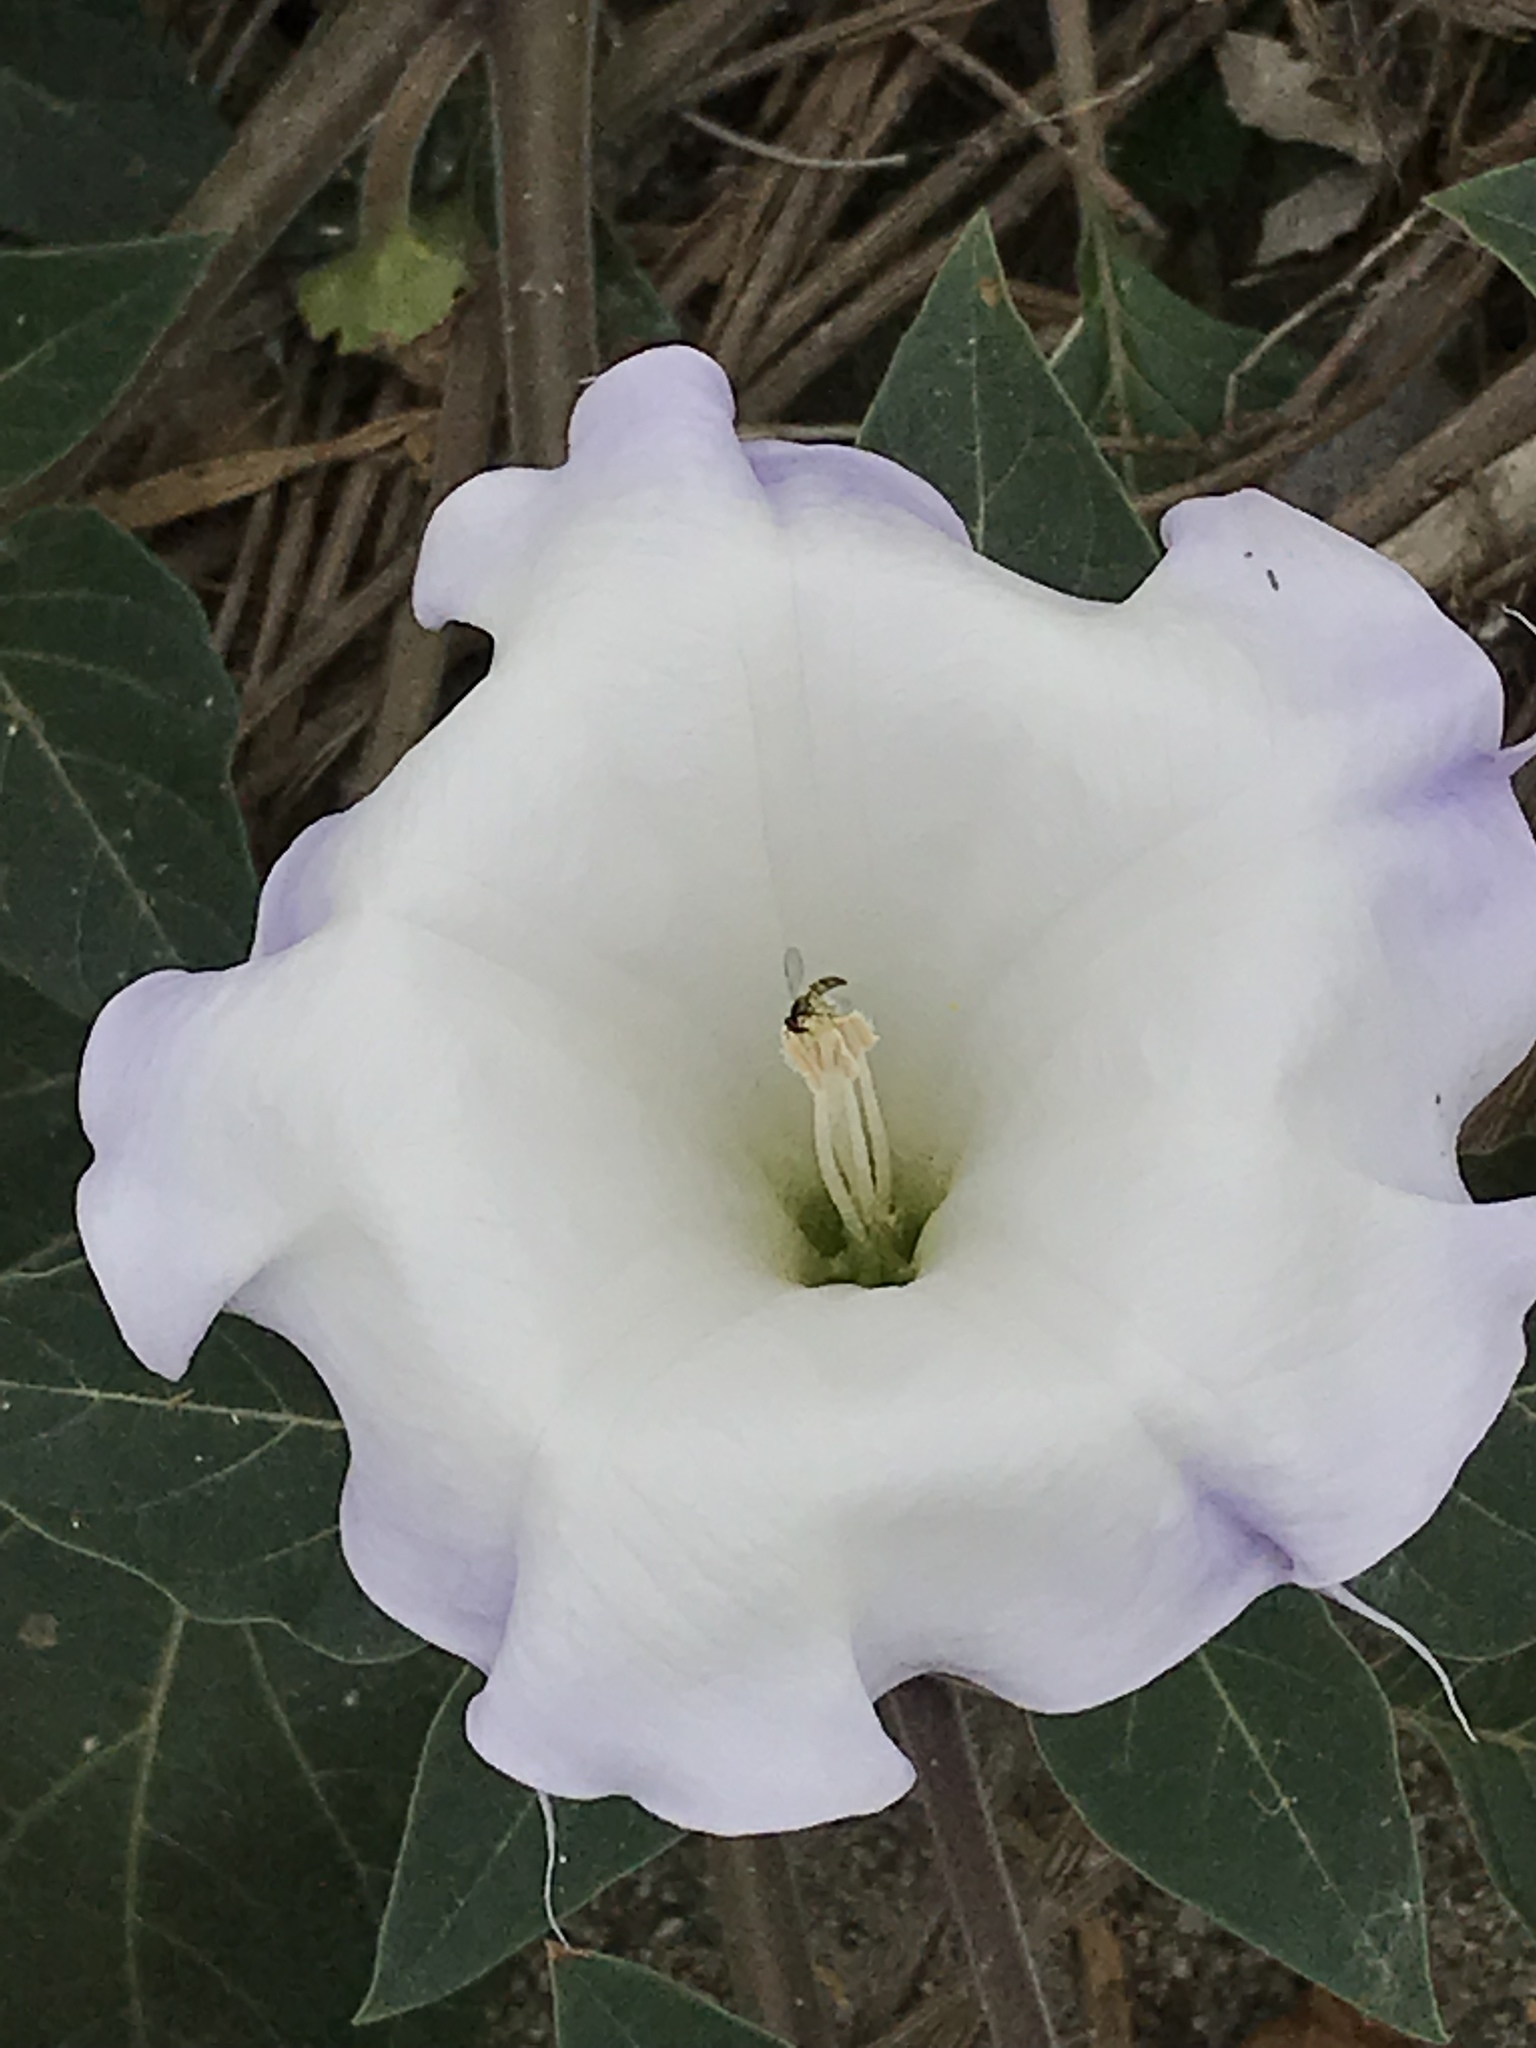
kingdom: Plantae
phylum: Tracheophyta
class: Magnoliopsida
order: Solanales
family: Solanaceae
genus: Datura
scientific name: Datura wrightii
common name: Sacred thorn-apple
